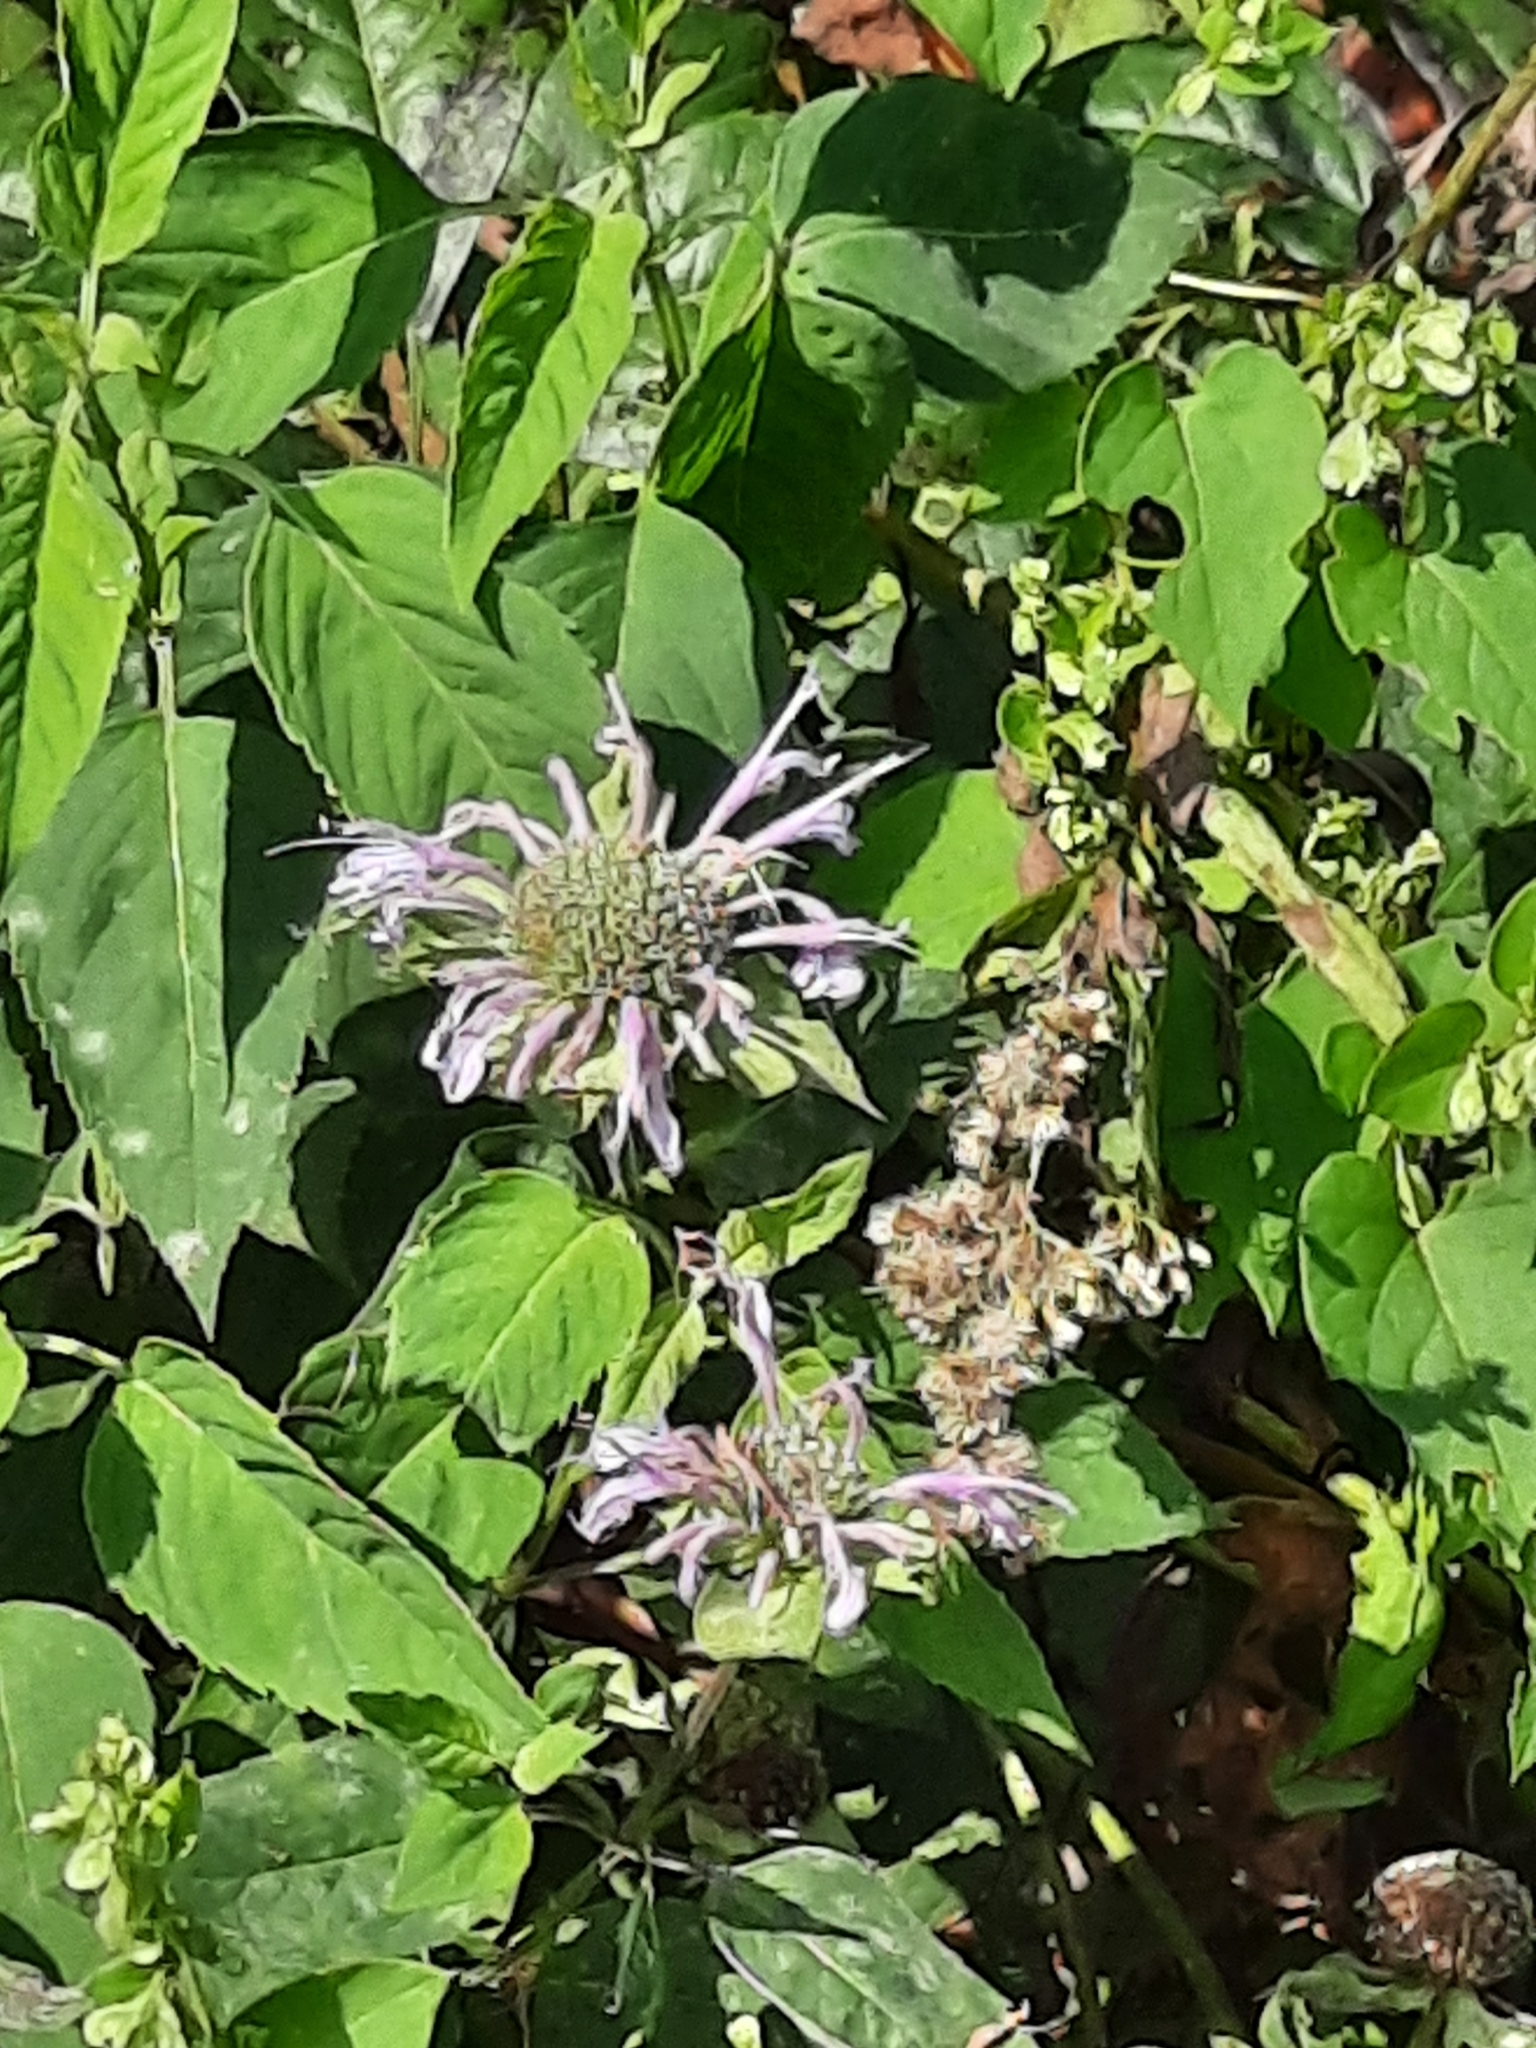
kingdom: Plantae
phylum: Tracheophyta
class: Magnoliopsida
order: Lamiales
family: Lamiaceae
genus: Monarda
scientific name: Monarda fistulosa
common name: Purple beebalm
